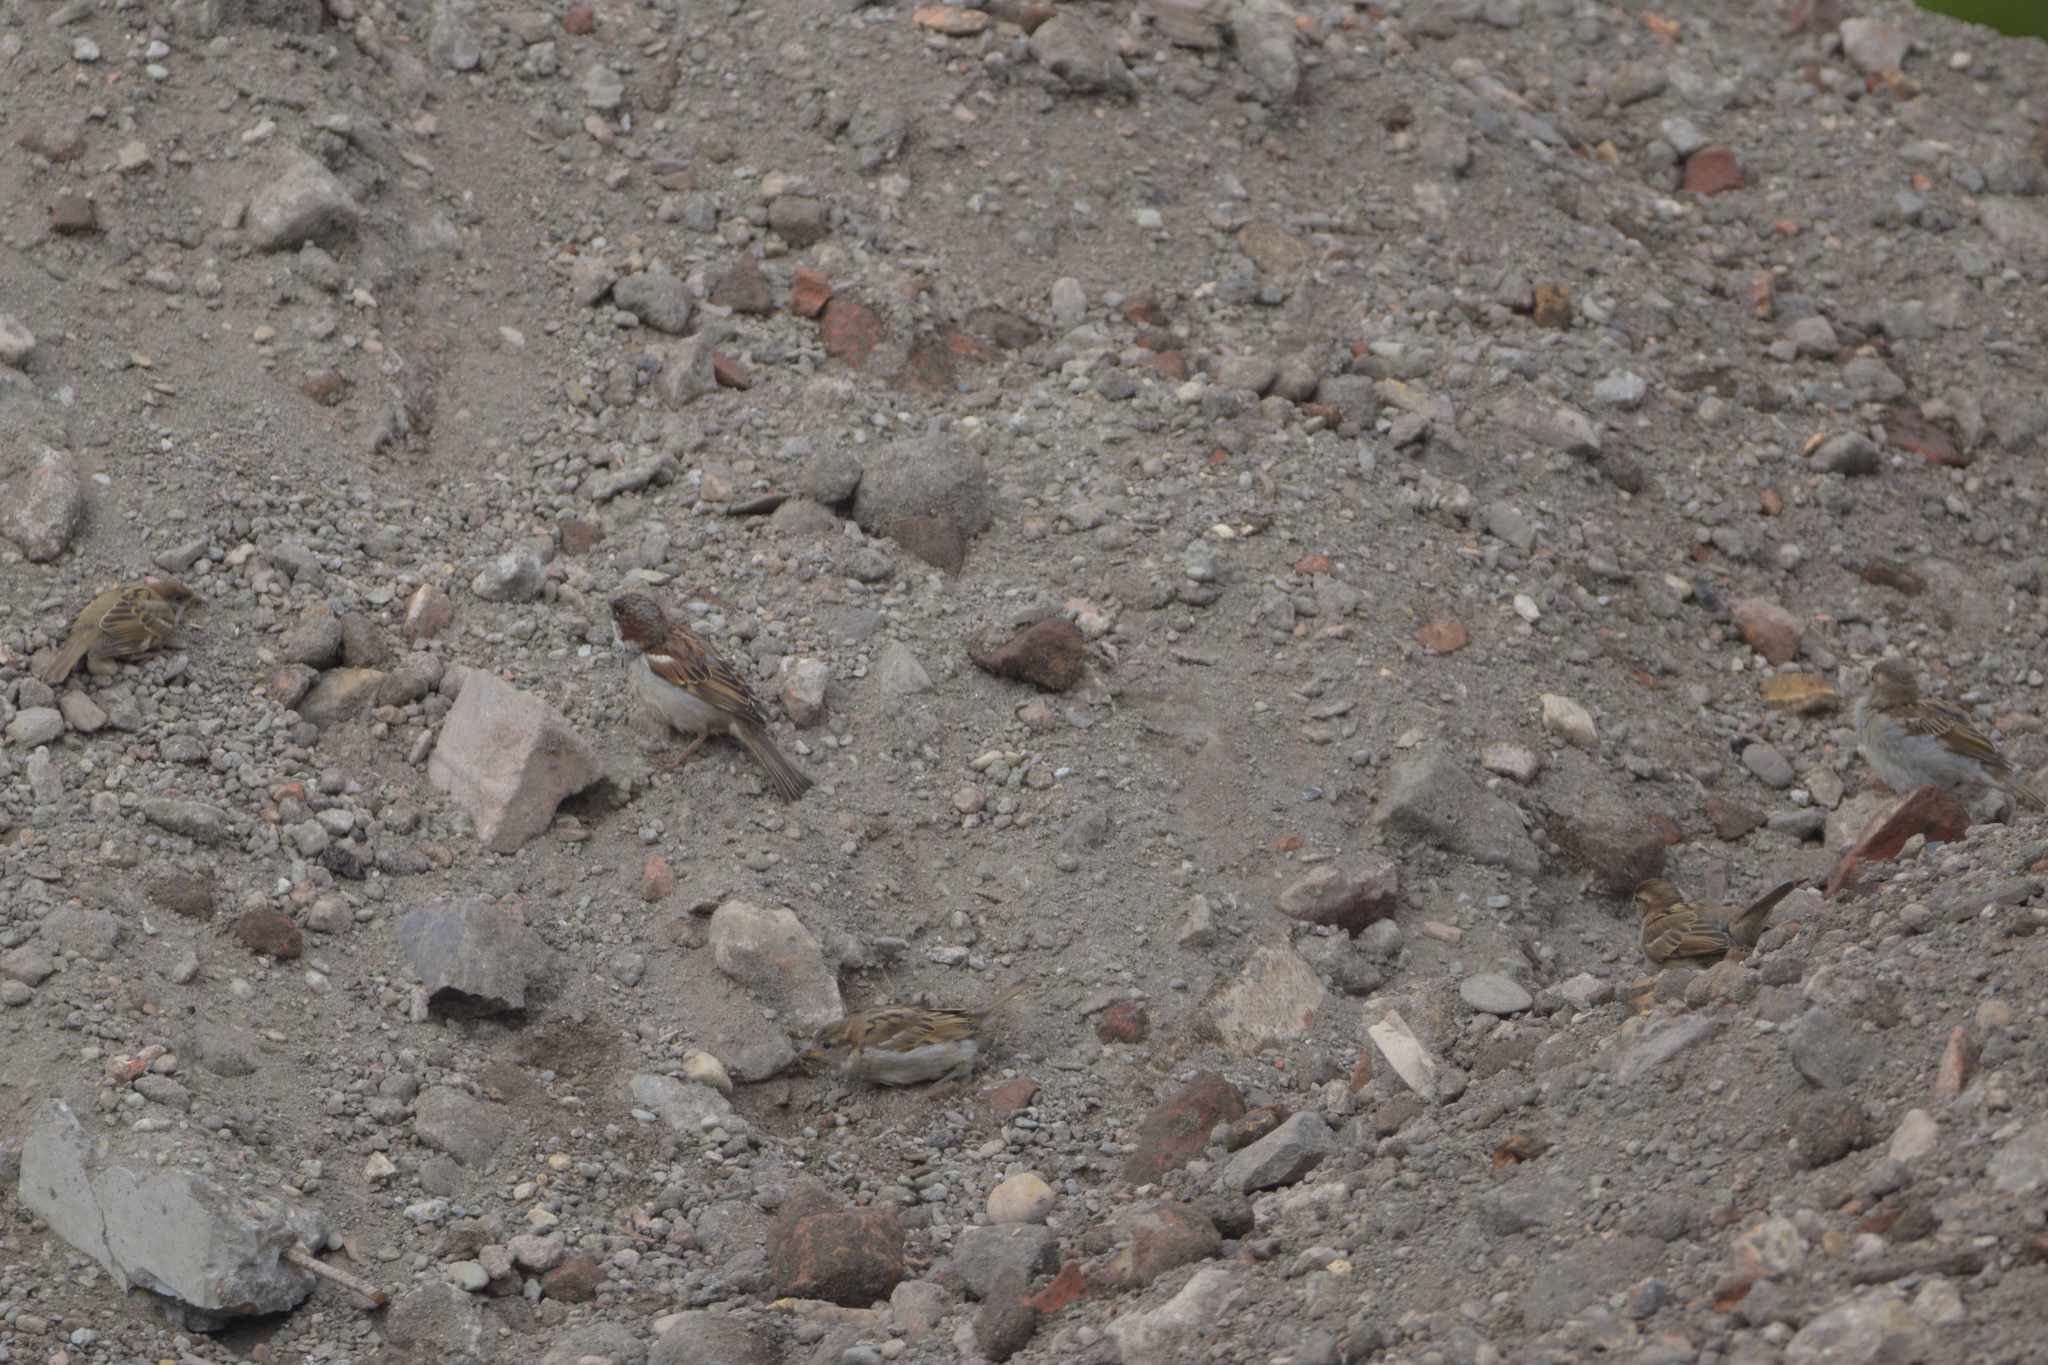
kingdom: Animalia
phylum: Chordata
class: Aves
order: Passeriformes
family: Passeridae
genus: Passer
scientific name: Passer domesticus
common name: House sparrow
